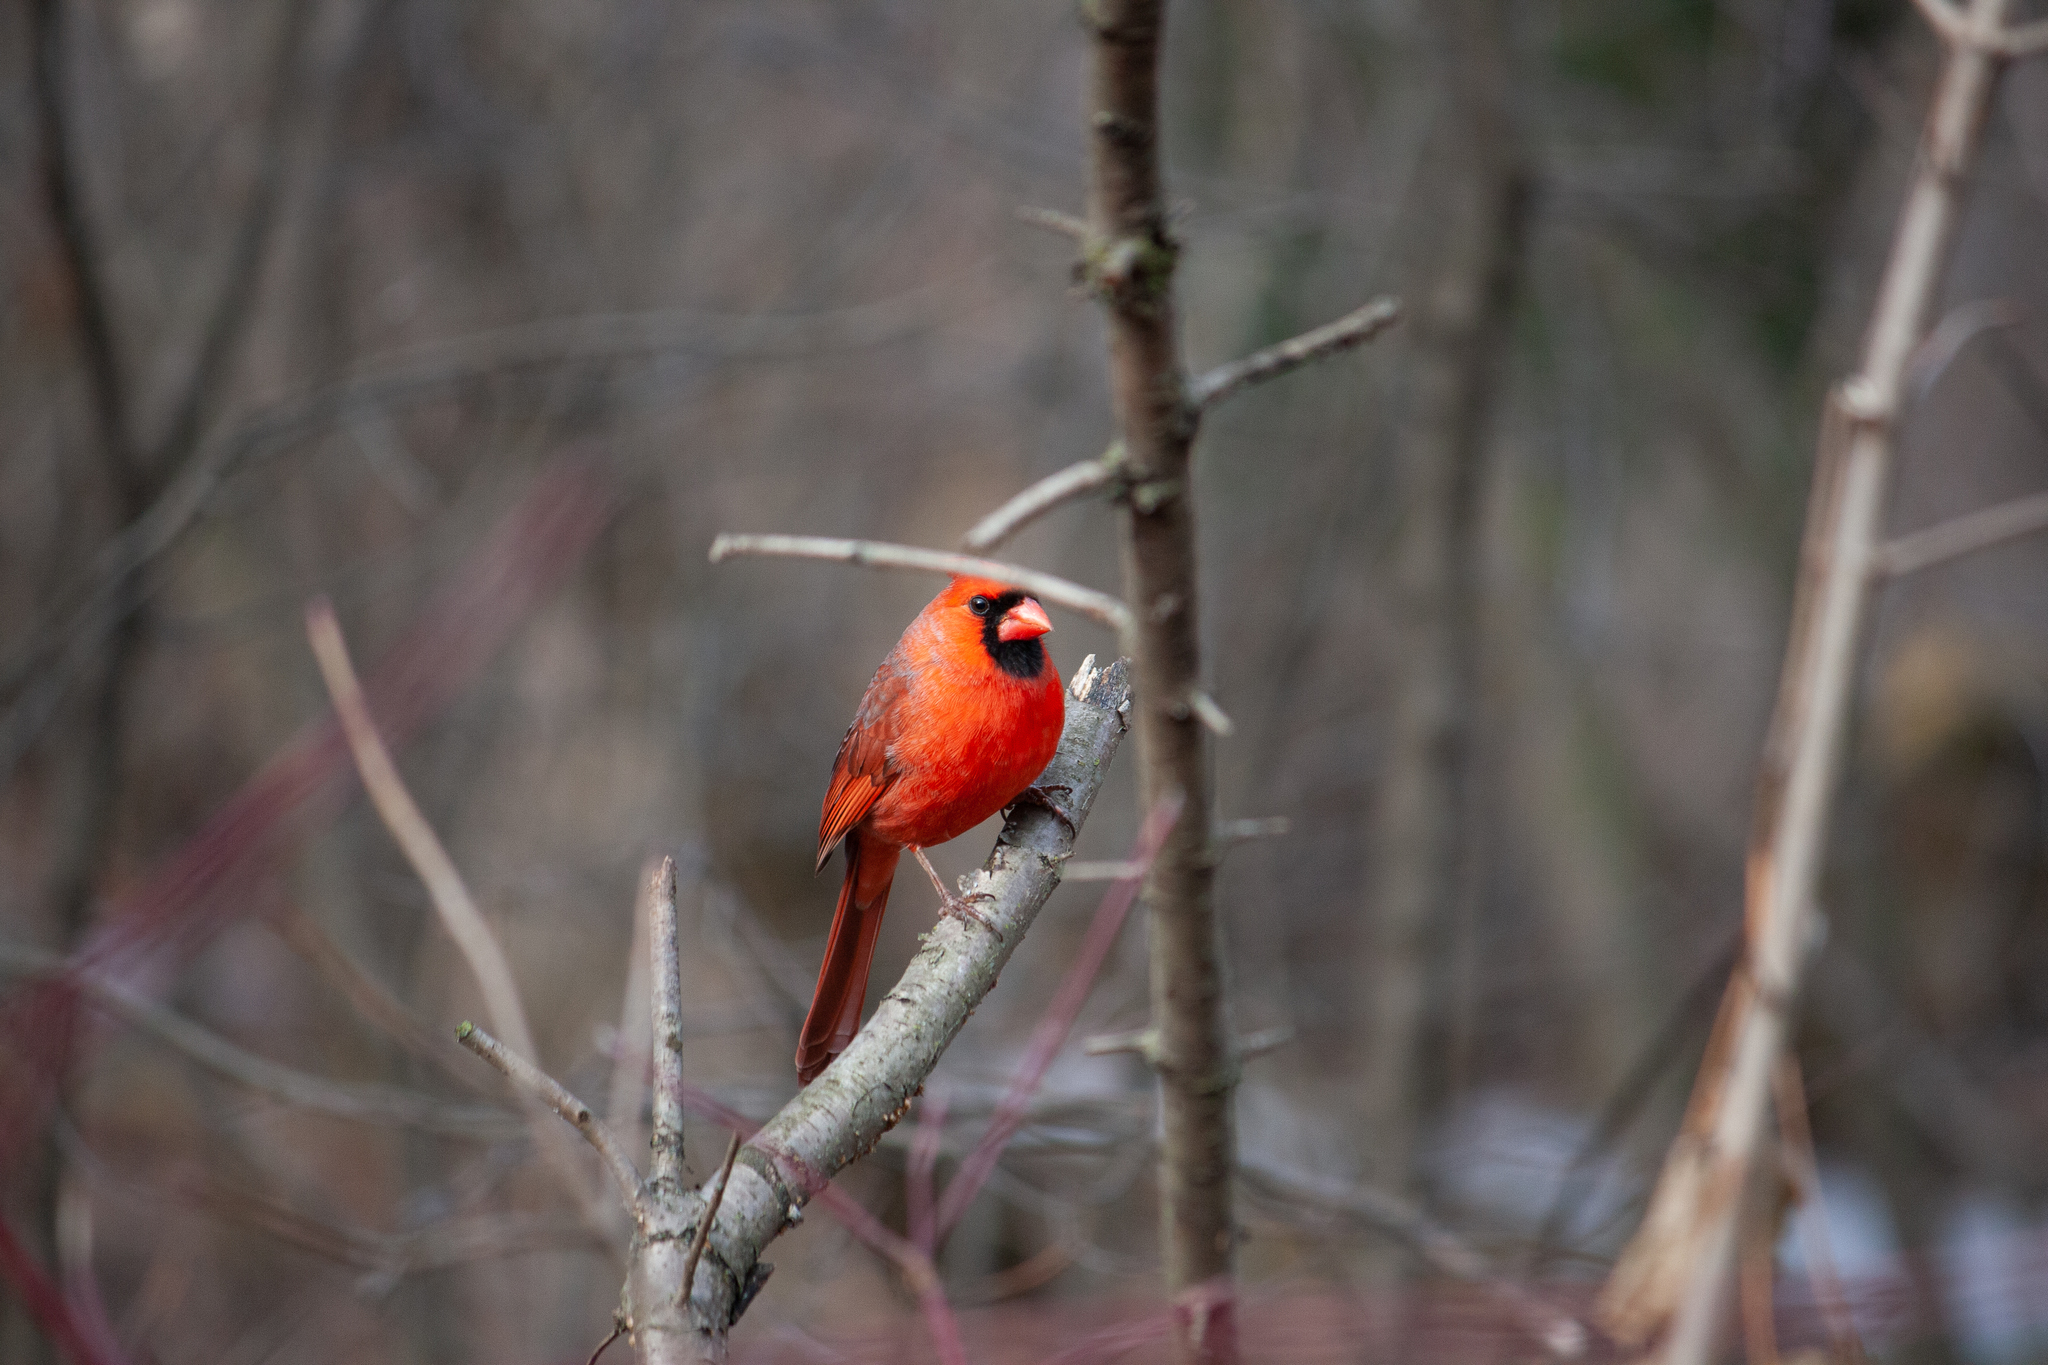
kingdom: Animalia
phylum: Chordata
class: Aves
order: Passeriformes
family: Cardinalidae
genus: Cardinalis
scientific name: Cardinalis cardinalis
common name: Northern cardinal
